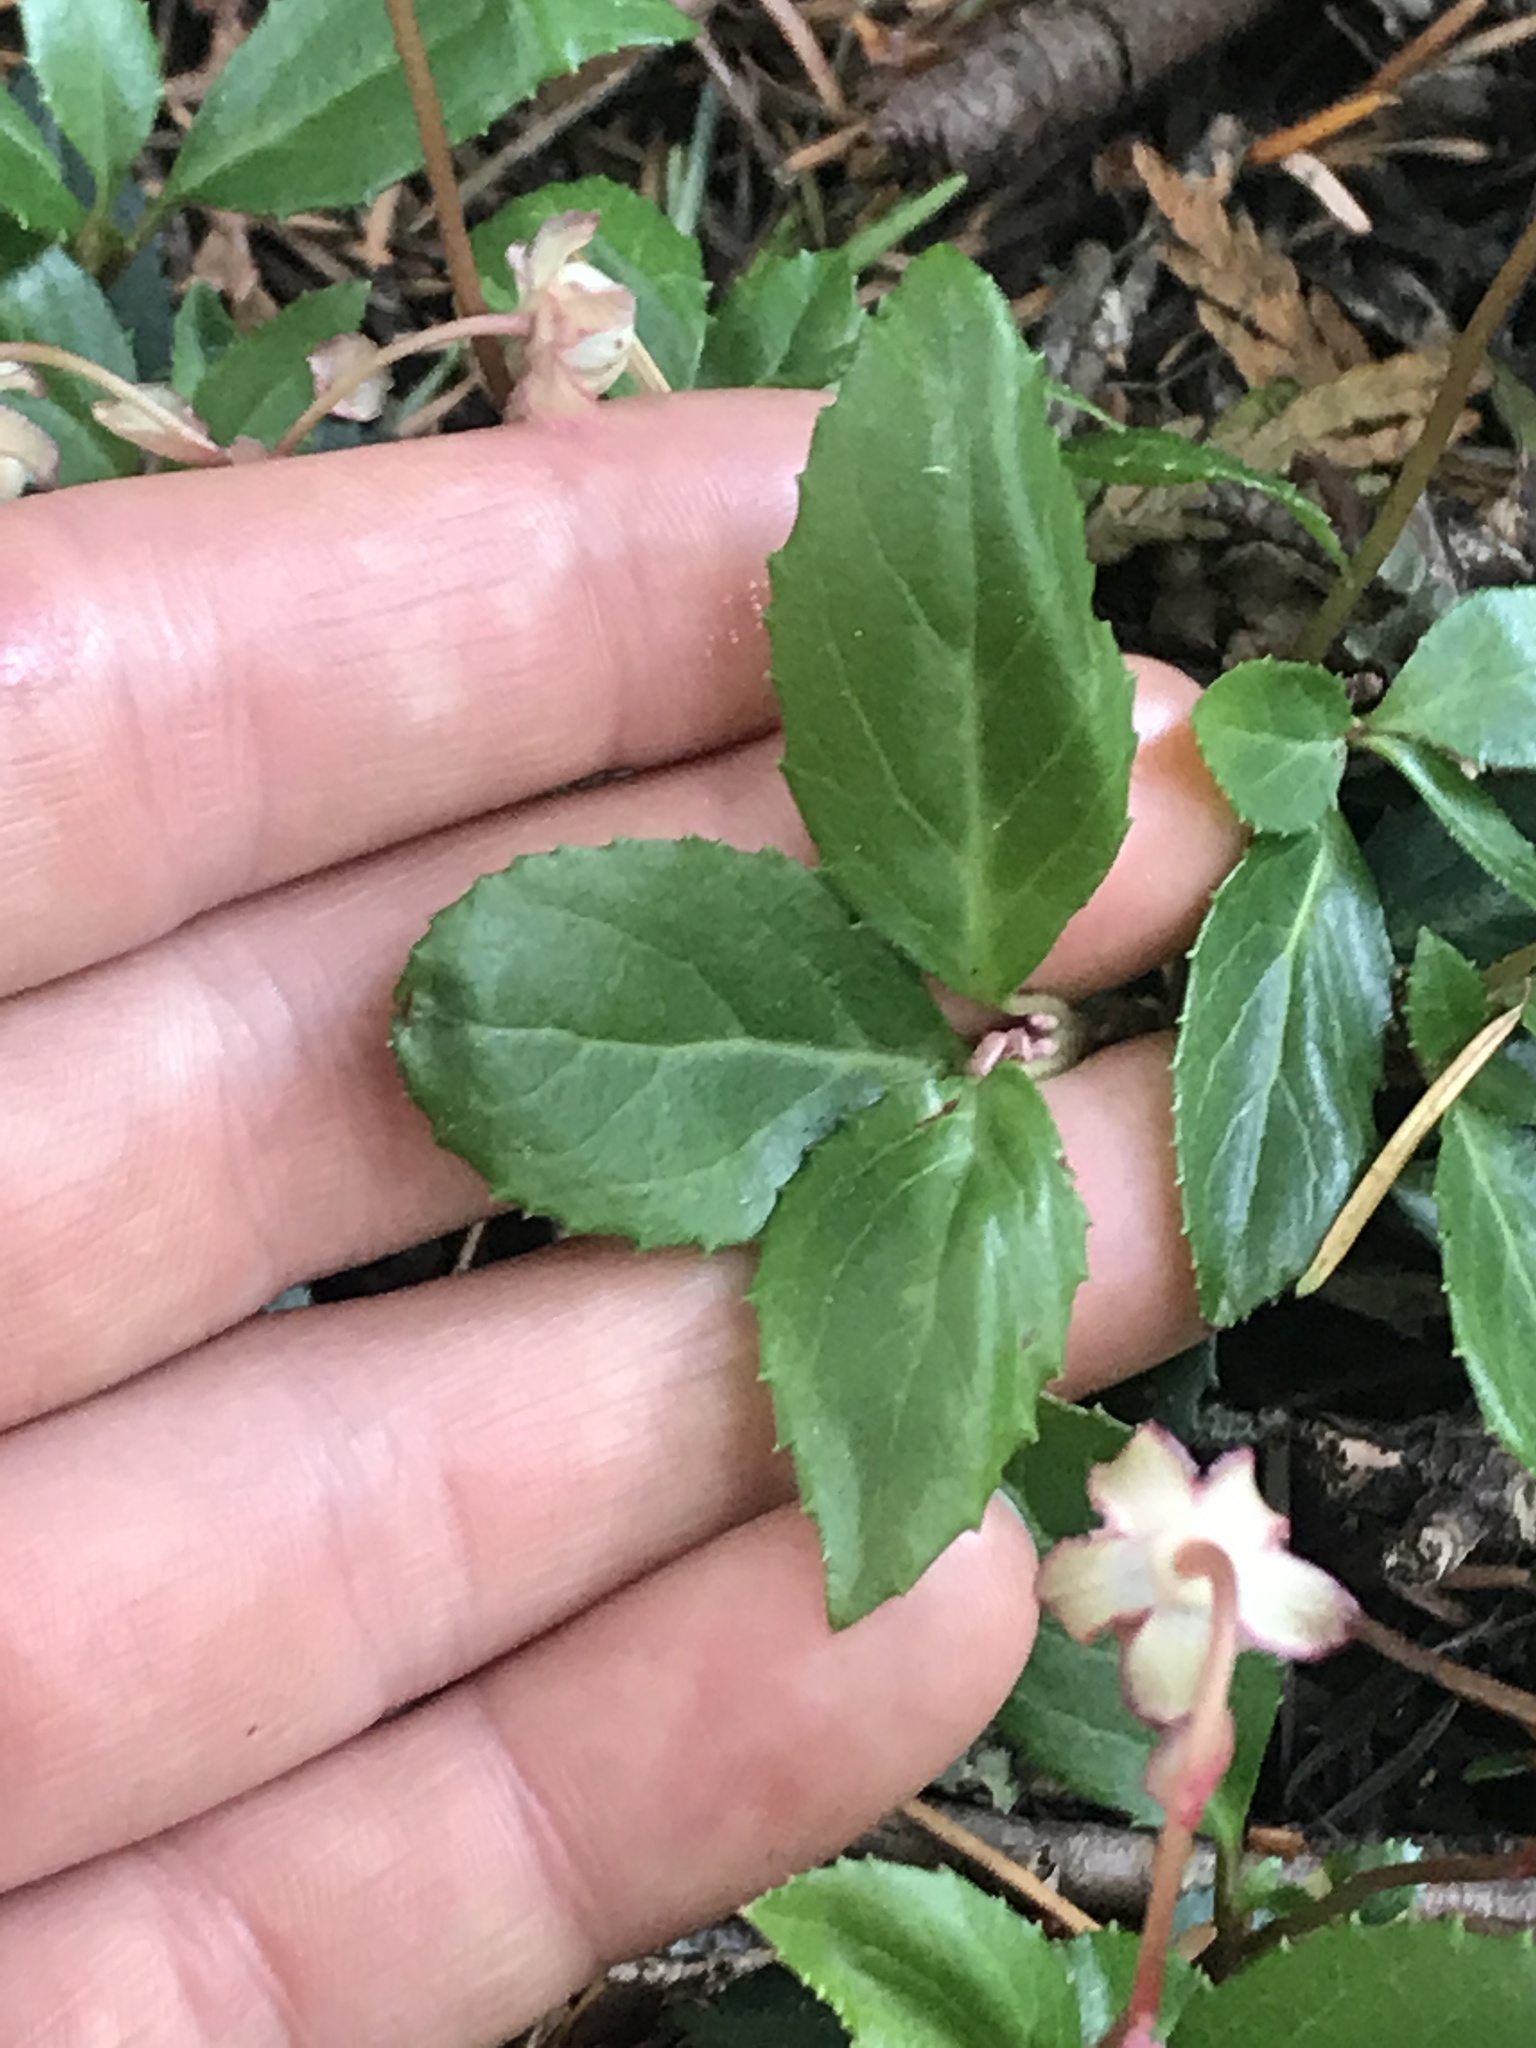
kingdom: Plantae
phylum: Tracheophyta
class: Magnoliopsida
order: Ericales
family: Ericaceae
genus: Chimaphila
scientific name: Chimaphila menziesii
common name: Menzies' pipsissewa
